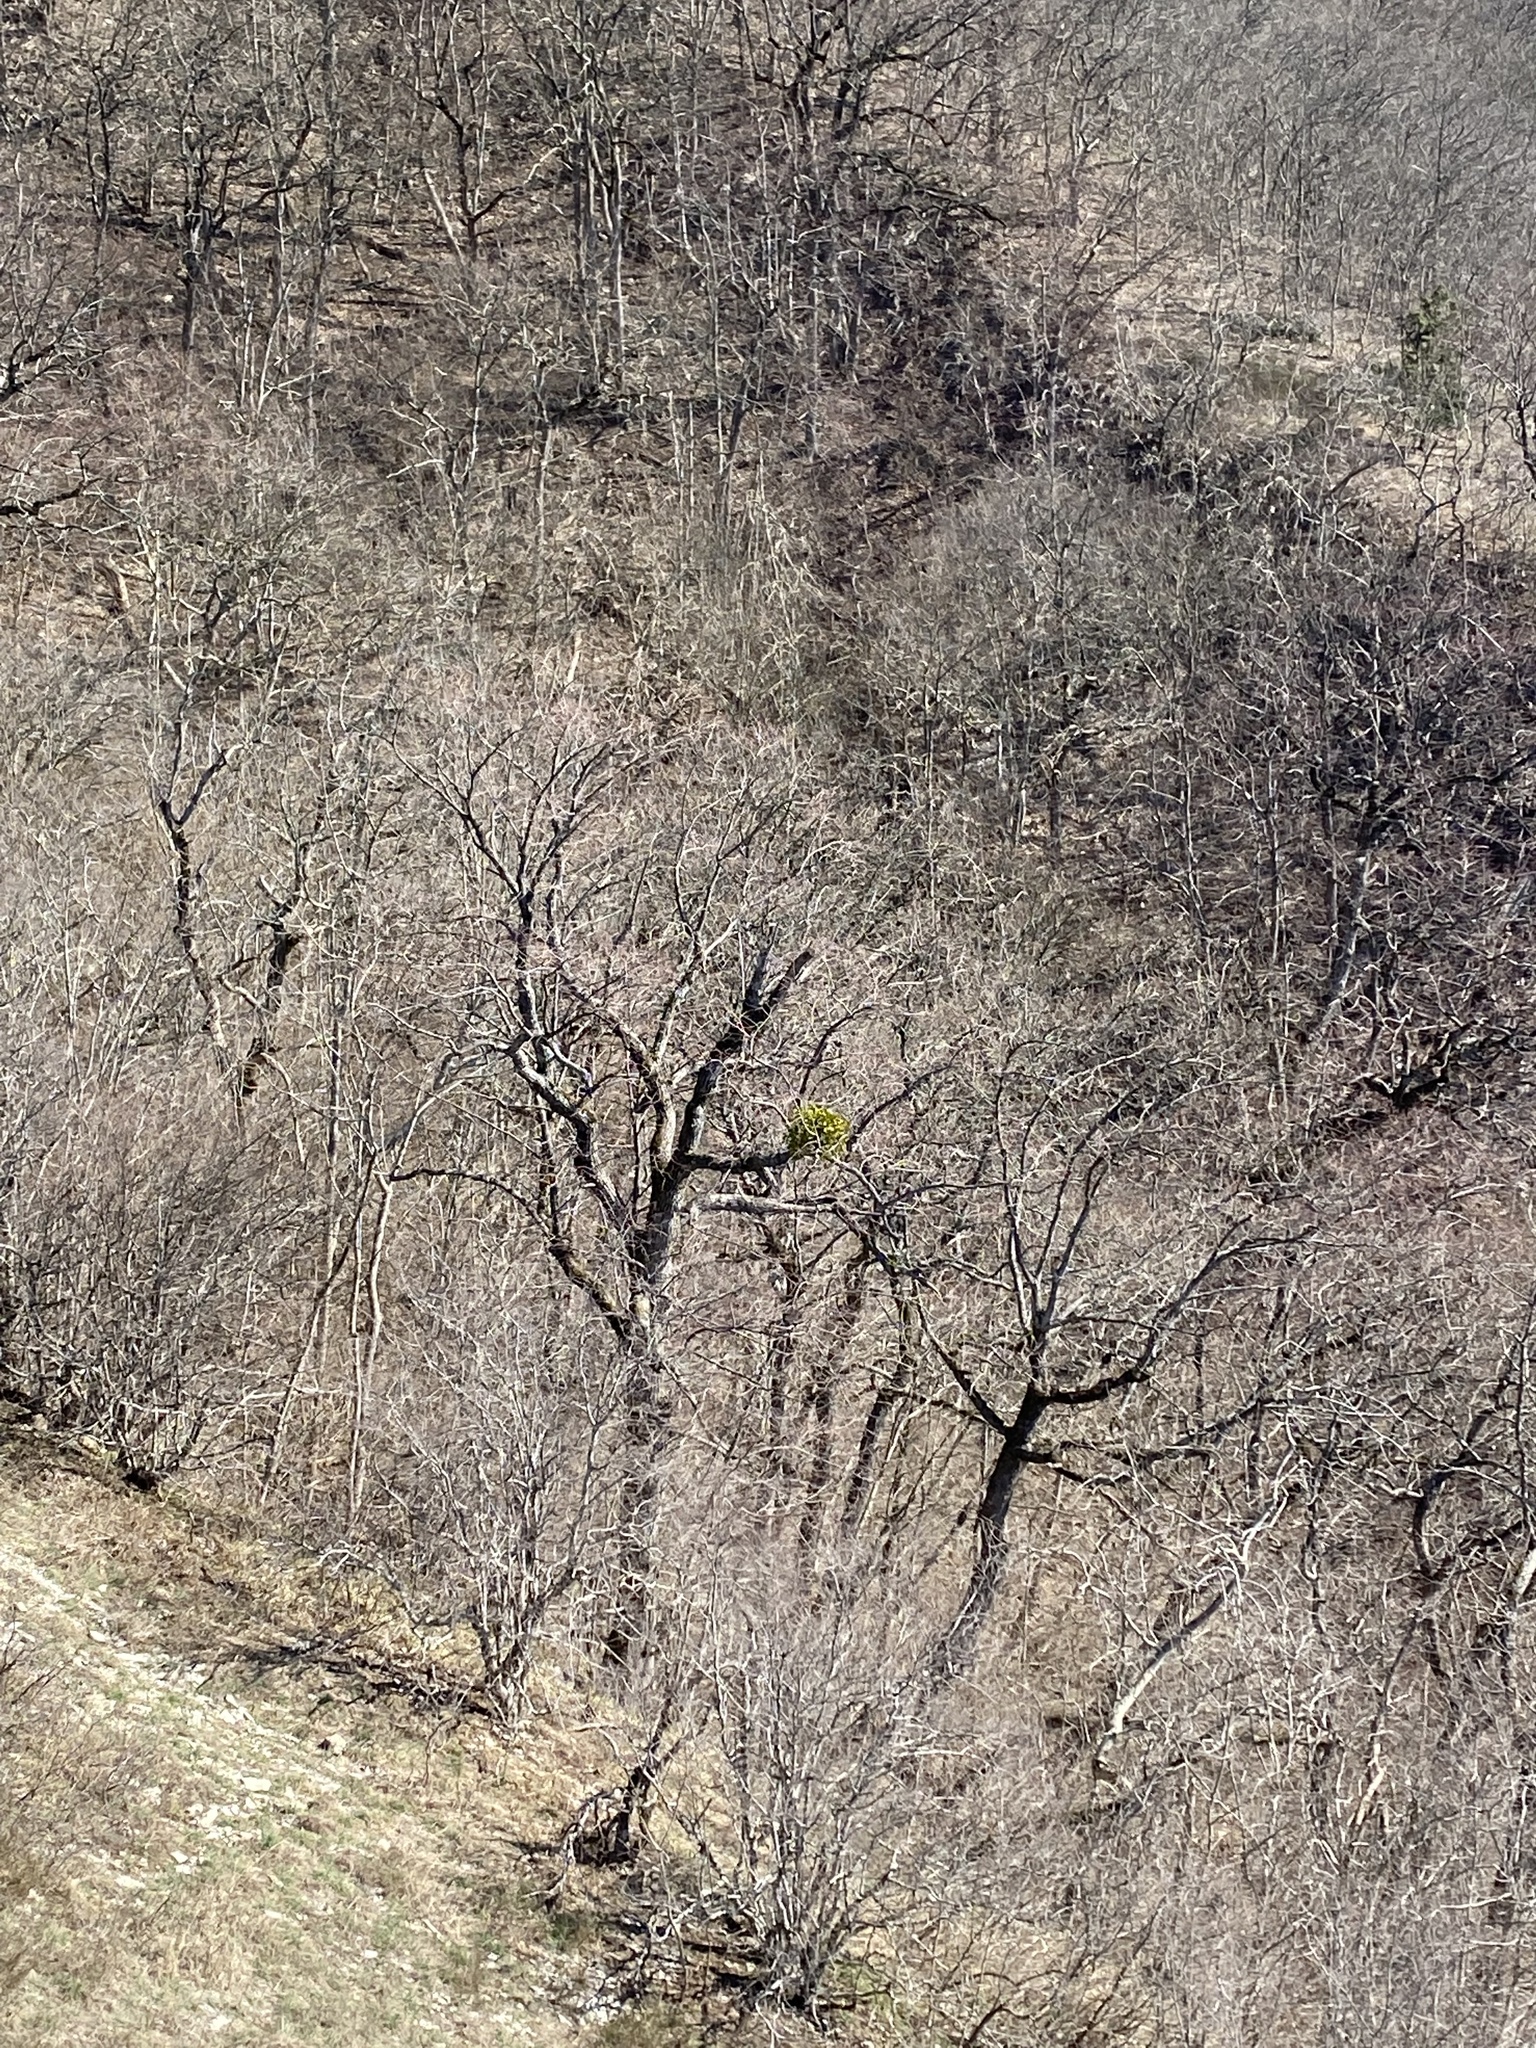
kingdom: Plantae
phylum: Tracheophyta
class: Magnoliopsida
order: Santalales
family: Viscaceae
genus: Viscum
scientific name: Viscum album
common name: Mistletoe
